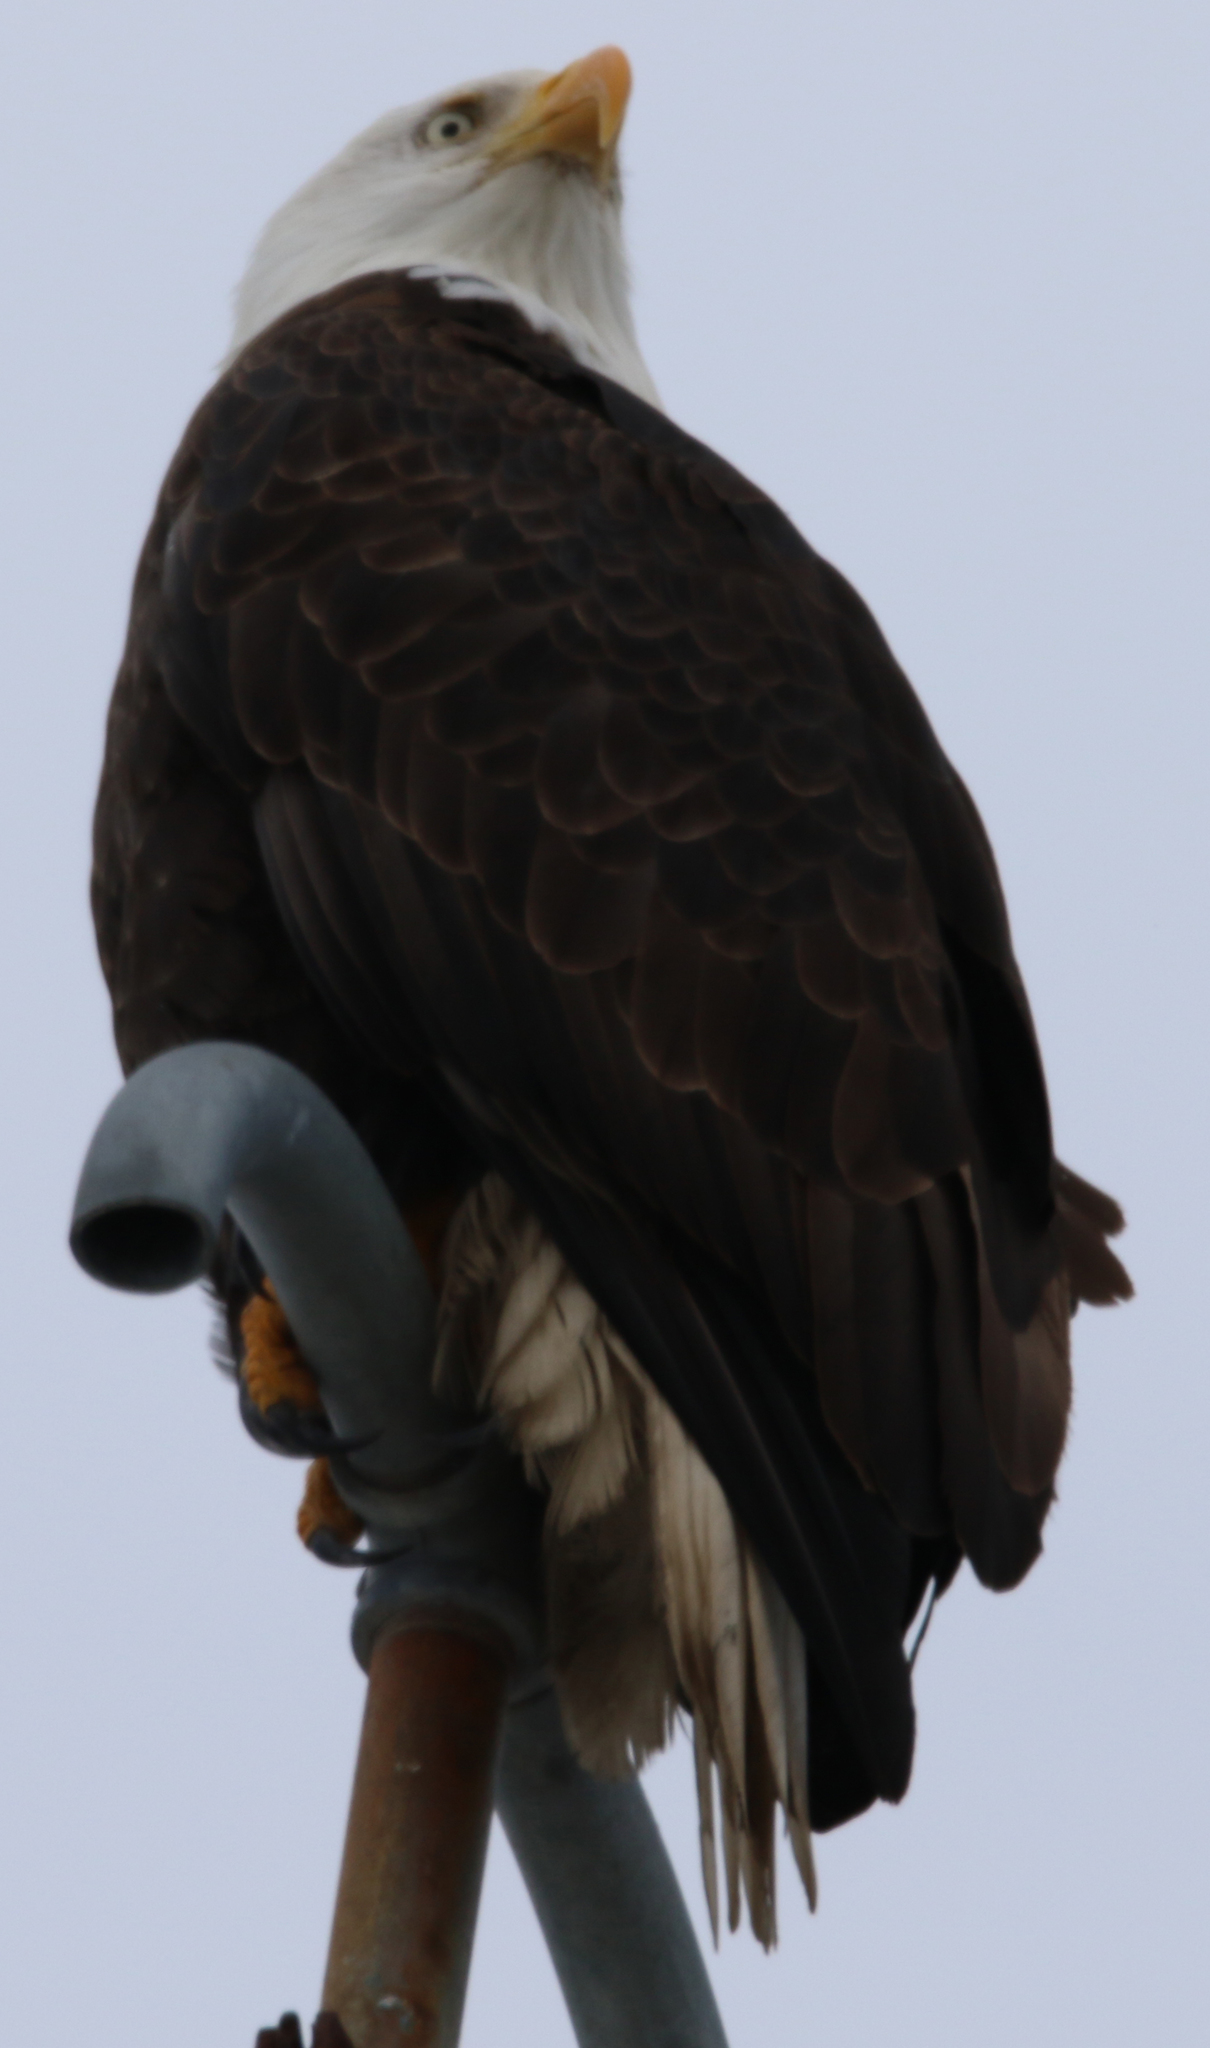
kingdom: Animalia
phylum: Chordata
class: Aves
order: Accipitriformes
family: Accipitridae
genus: Haliaeetus
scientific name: Haliaeetus leucocephalus
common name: Bald eagle
